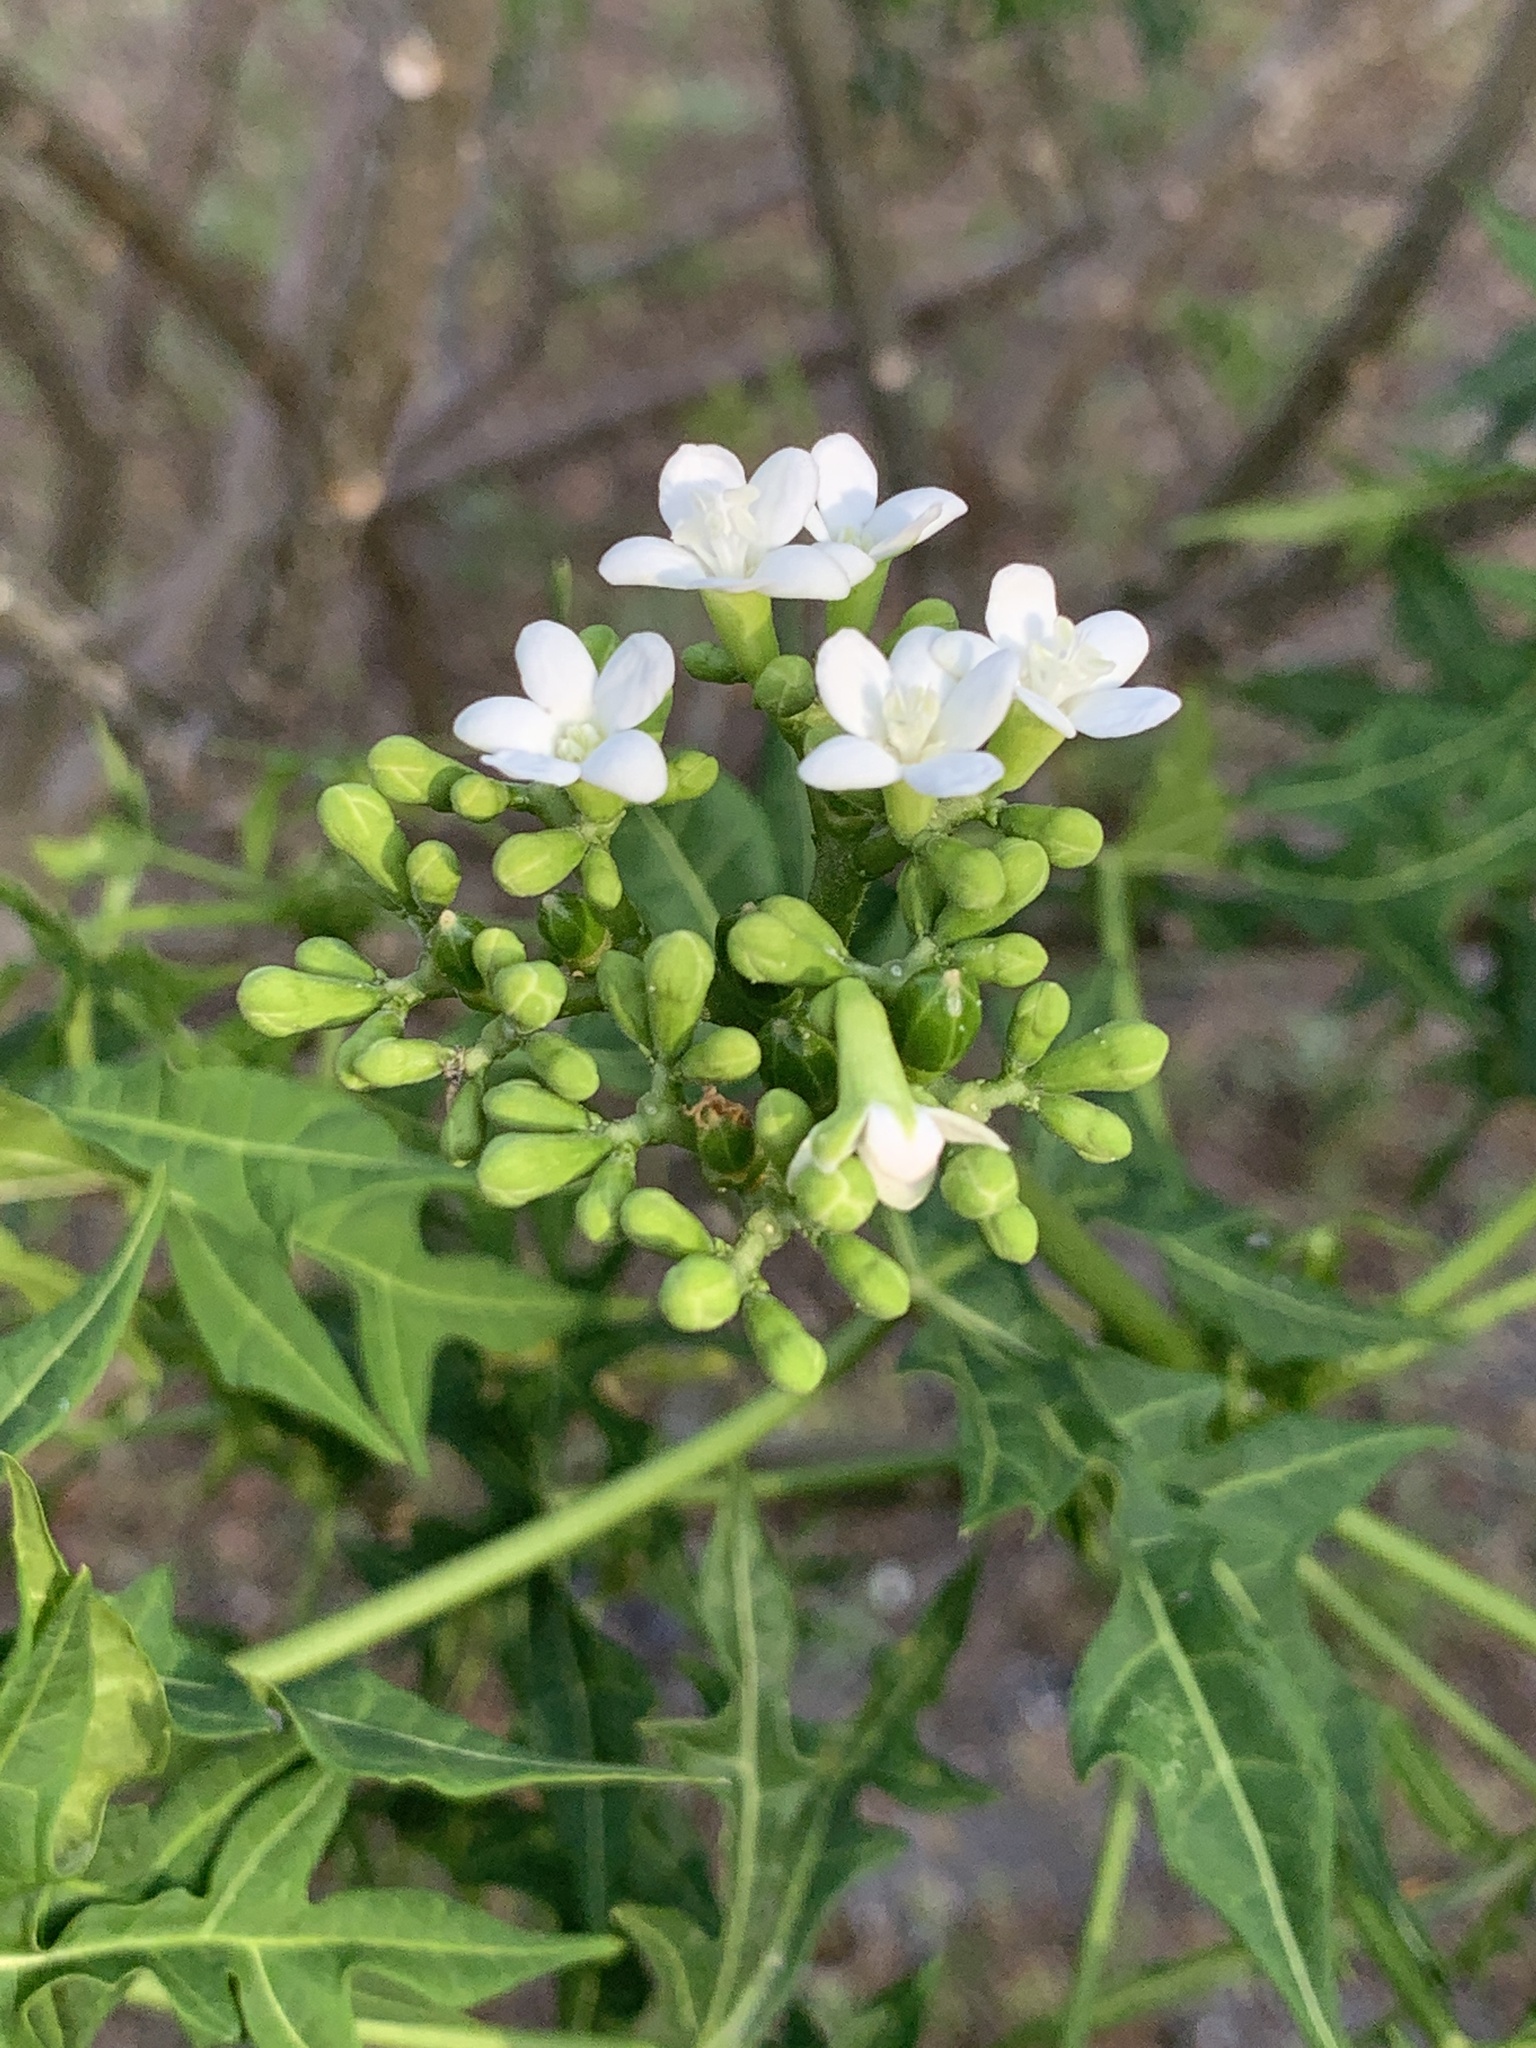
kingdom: Plantae
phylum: Tracheophyta
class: Magnoliopsida
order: Malpighiales
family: Euphorbiaceae
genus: Cnidoscolus
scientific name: Cnidoscolus aconitifolius
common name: Cabbage-star
